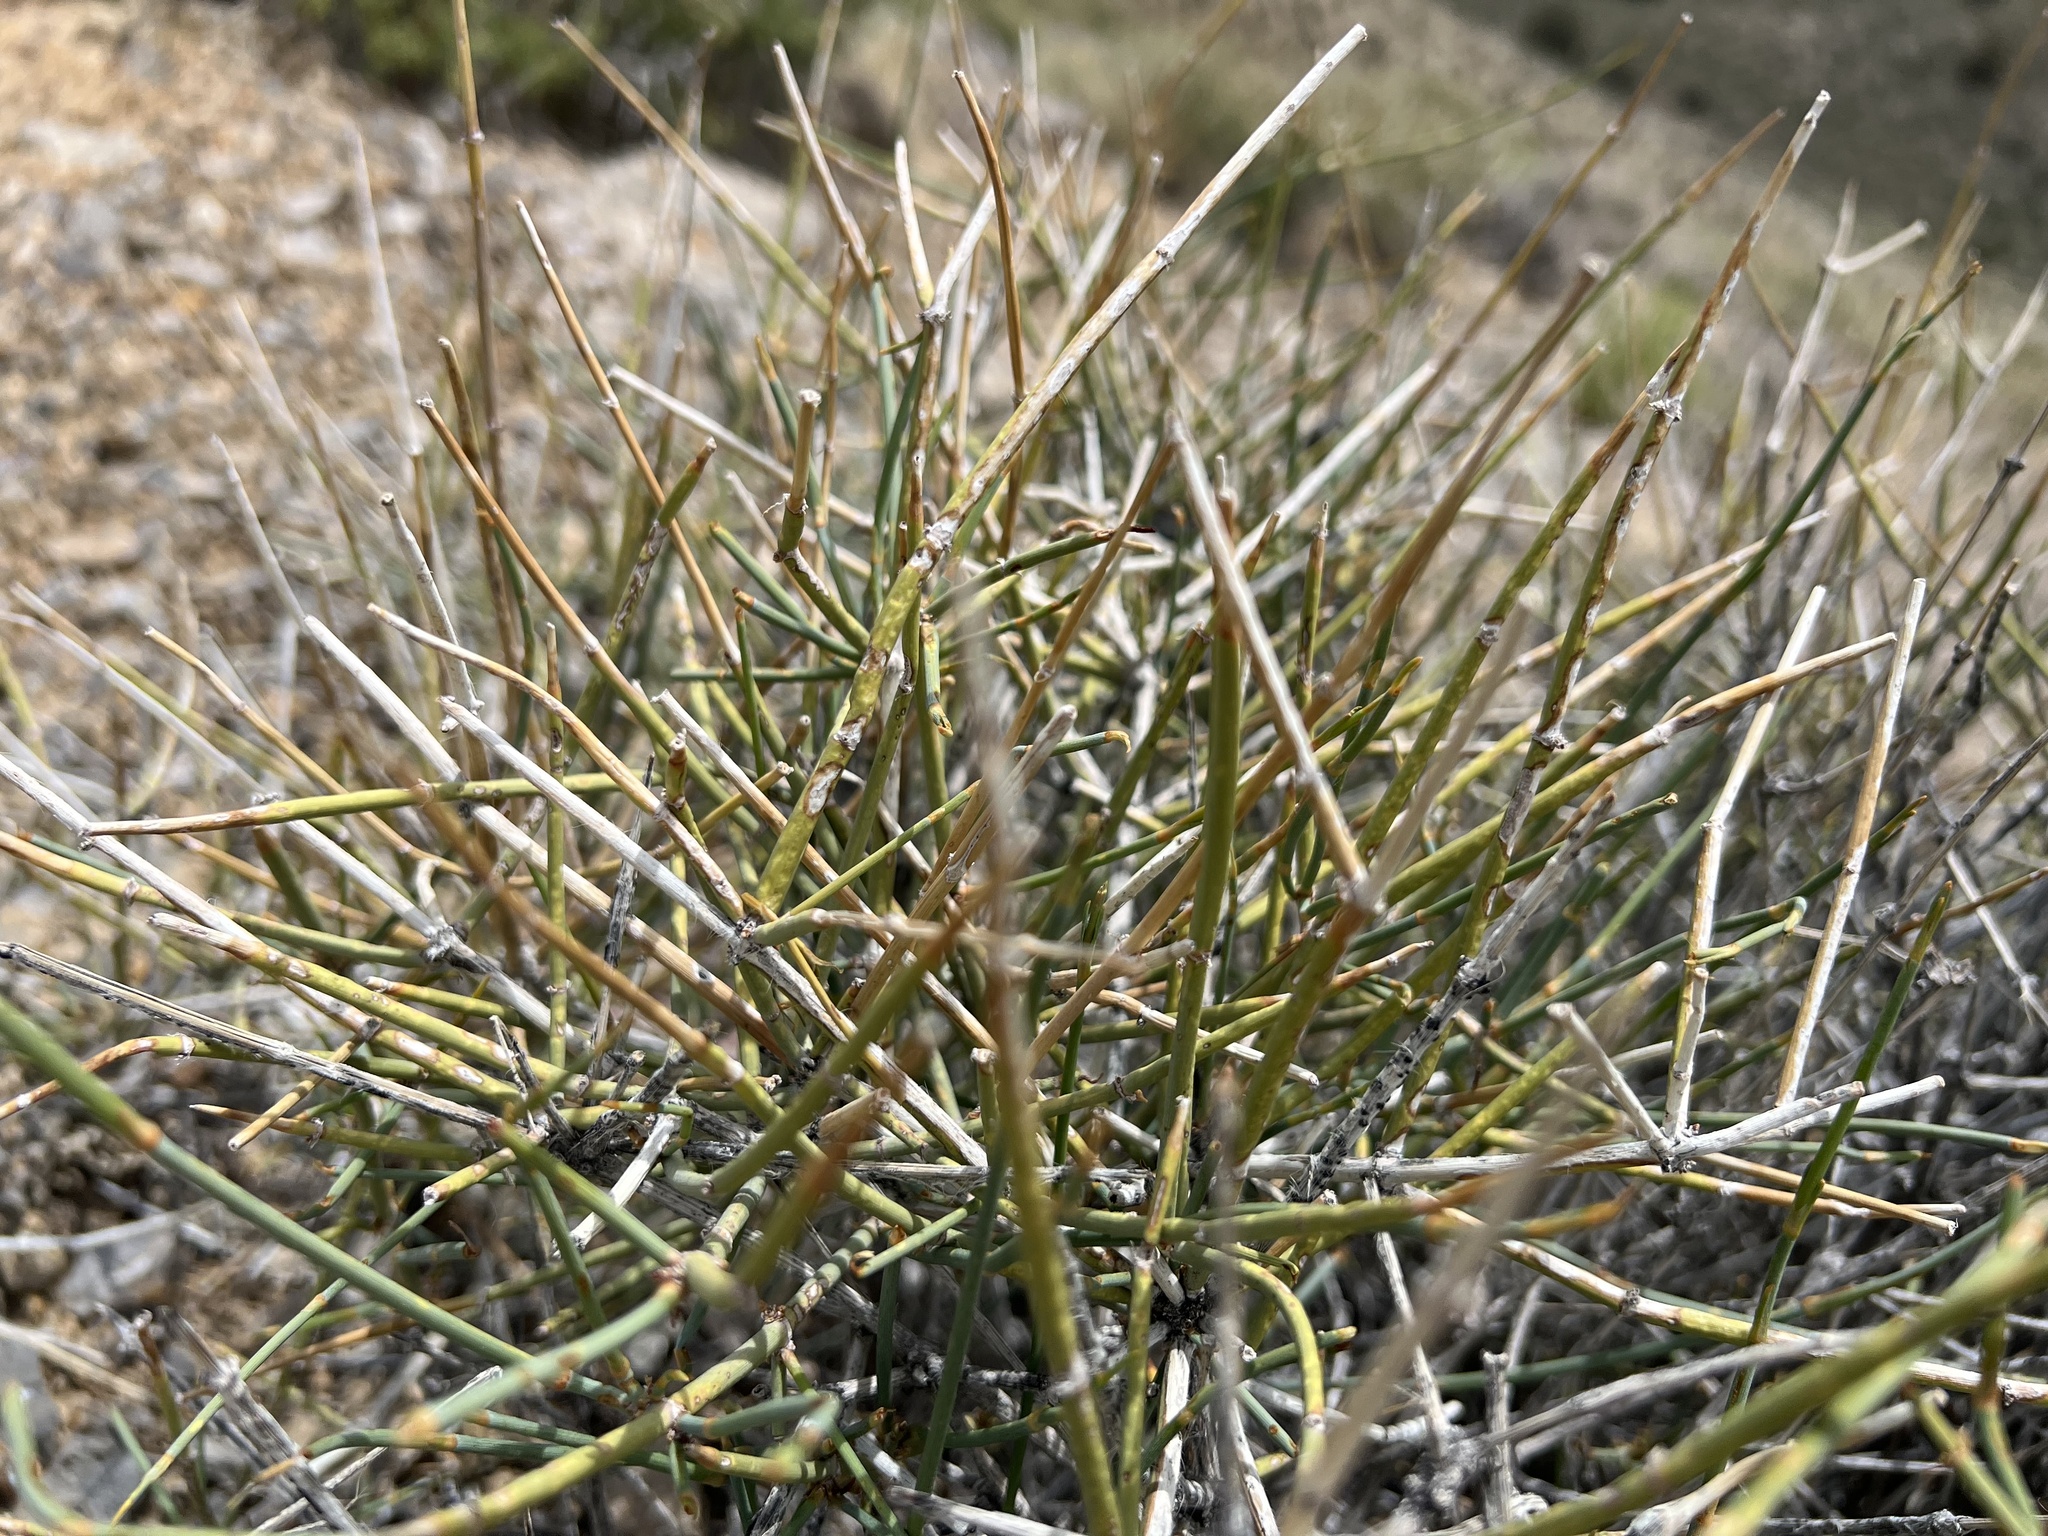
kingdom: Plantae
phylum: Tracheophyta
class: Gnetopsida
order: Ephedrales
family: Ephedraceae
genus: Ephedra
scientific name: Ephedra nevadensis
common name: Gray ephedra
